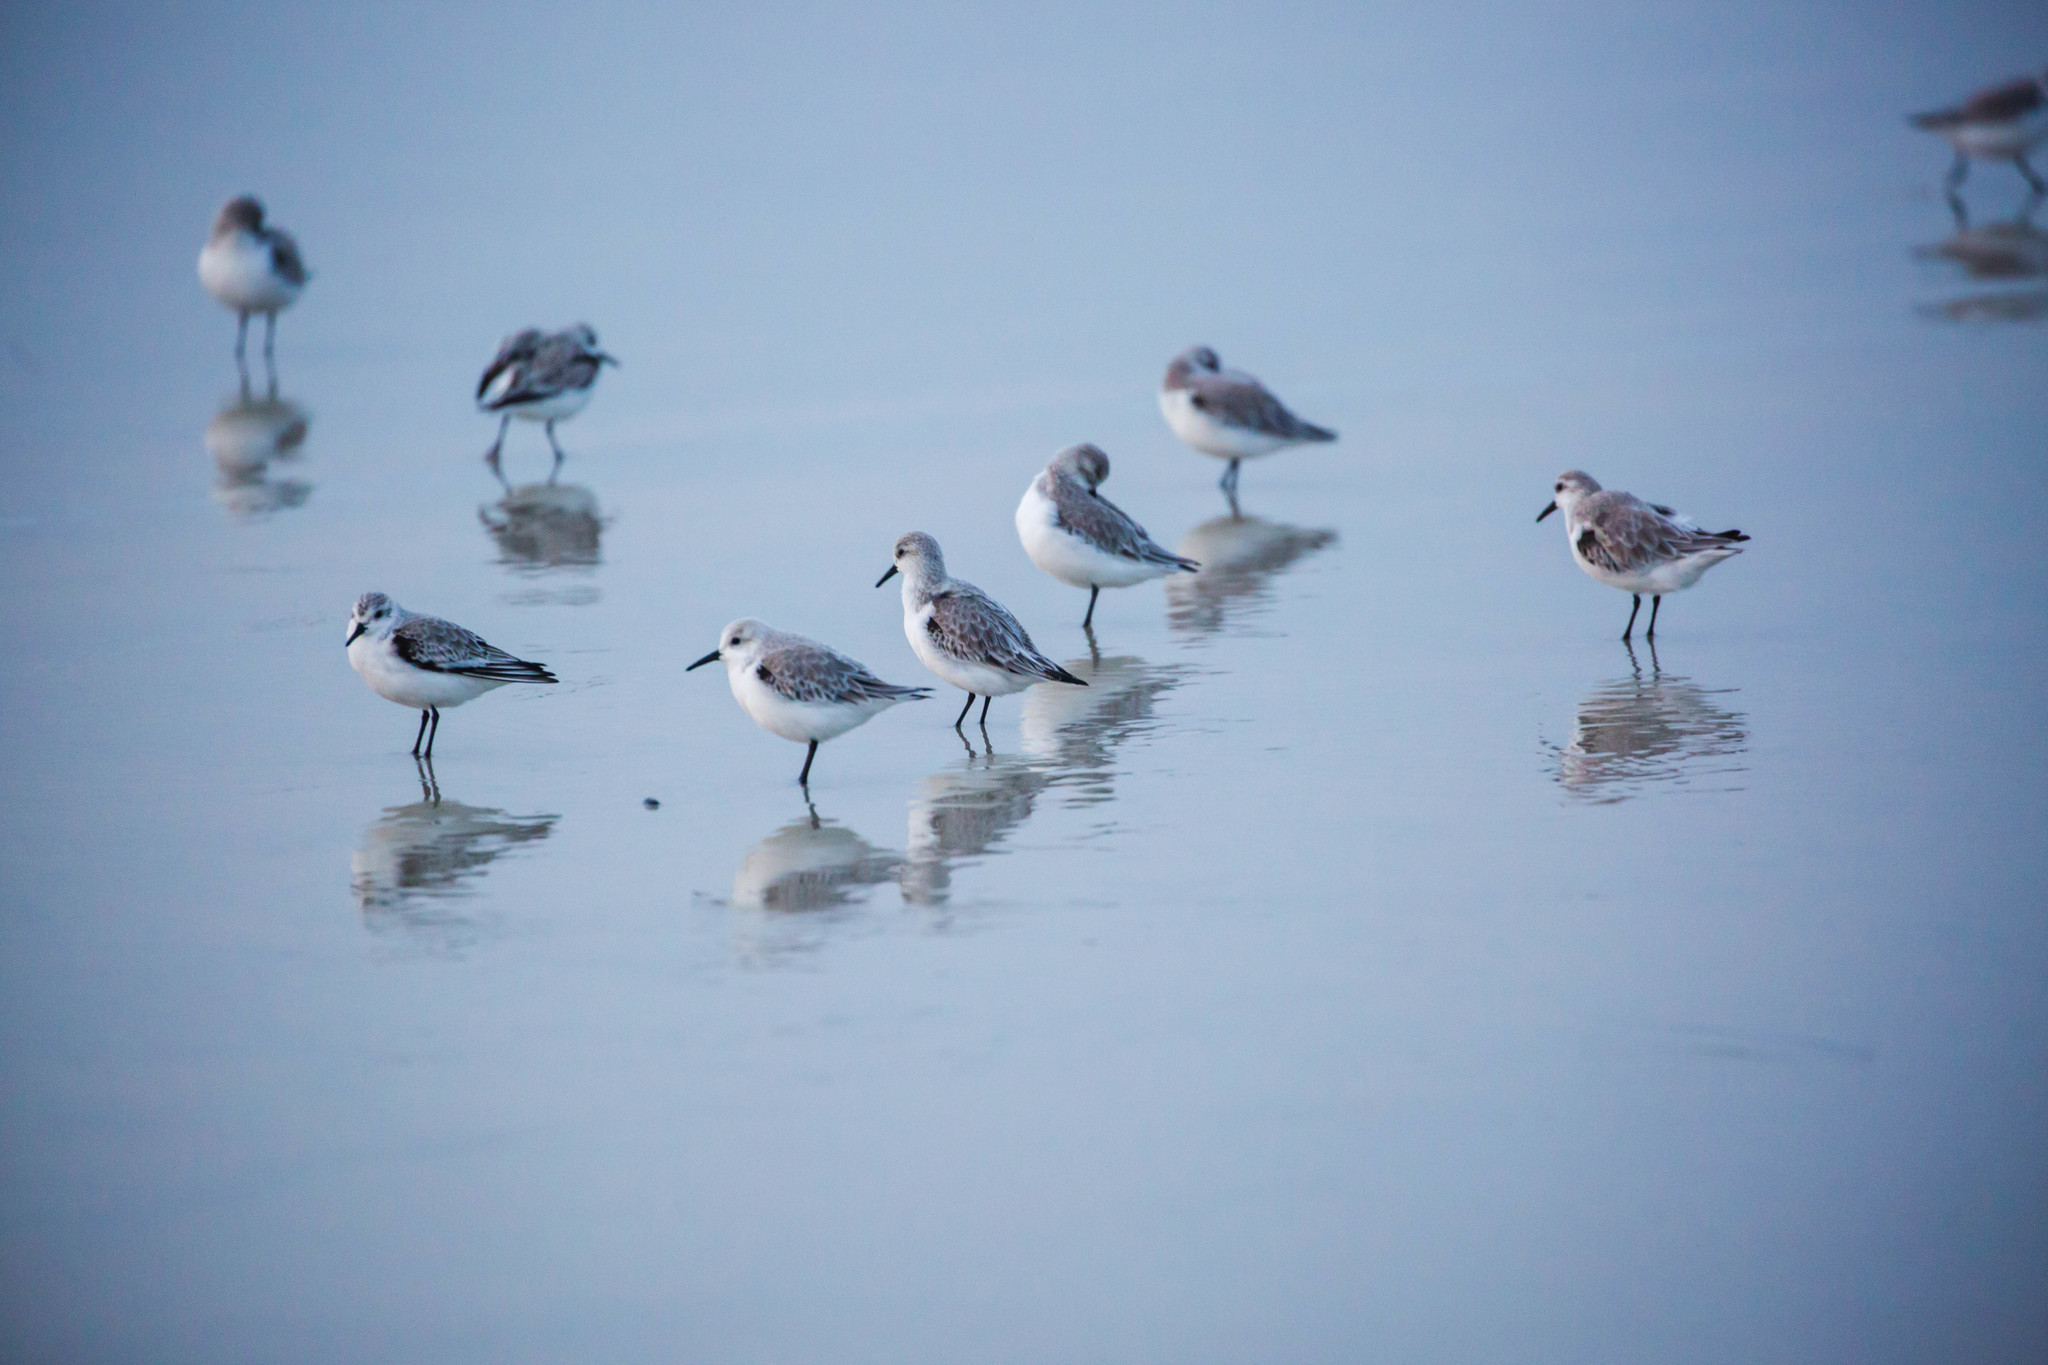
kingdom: Animalia
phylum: Chordata
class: Aves
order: Charadriiformes
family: Scolopacidae
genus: Calidris
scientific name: Calidris alba
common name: Sanderling
